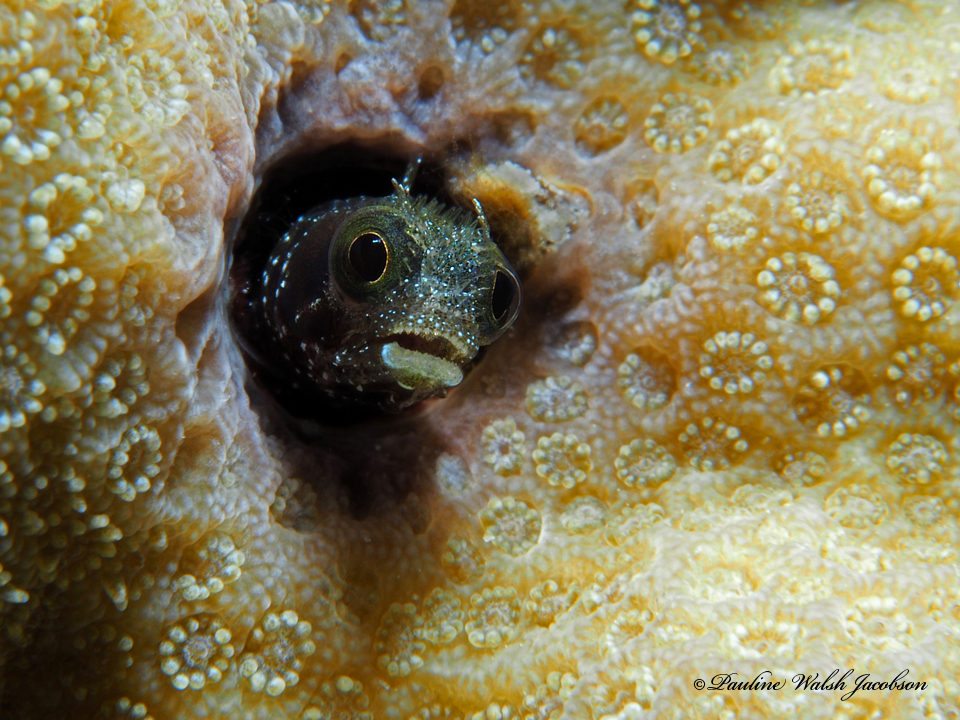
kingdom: Animalia
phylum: Chordata
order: Perciformes
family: Chaenopsidae
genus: Acanthemblemaria
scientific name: Acanthemblemaria spinosa
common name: Spinyhead blenny
